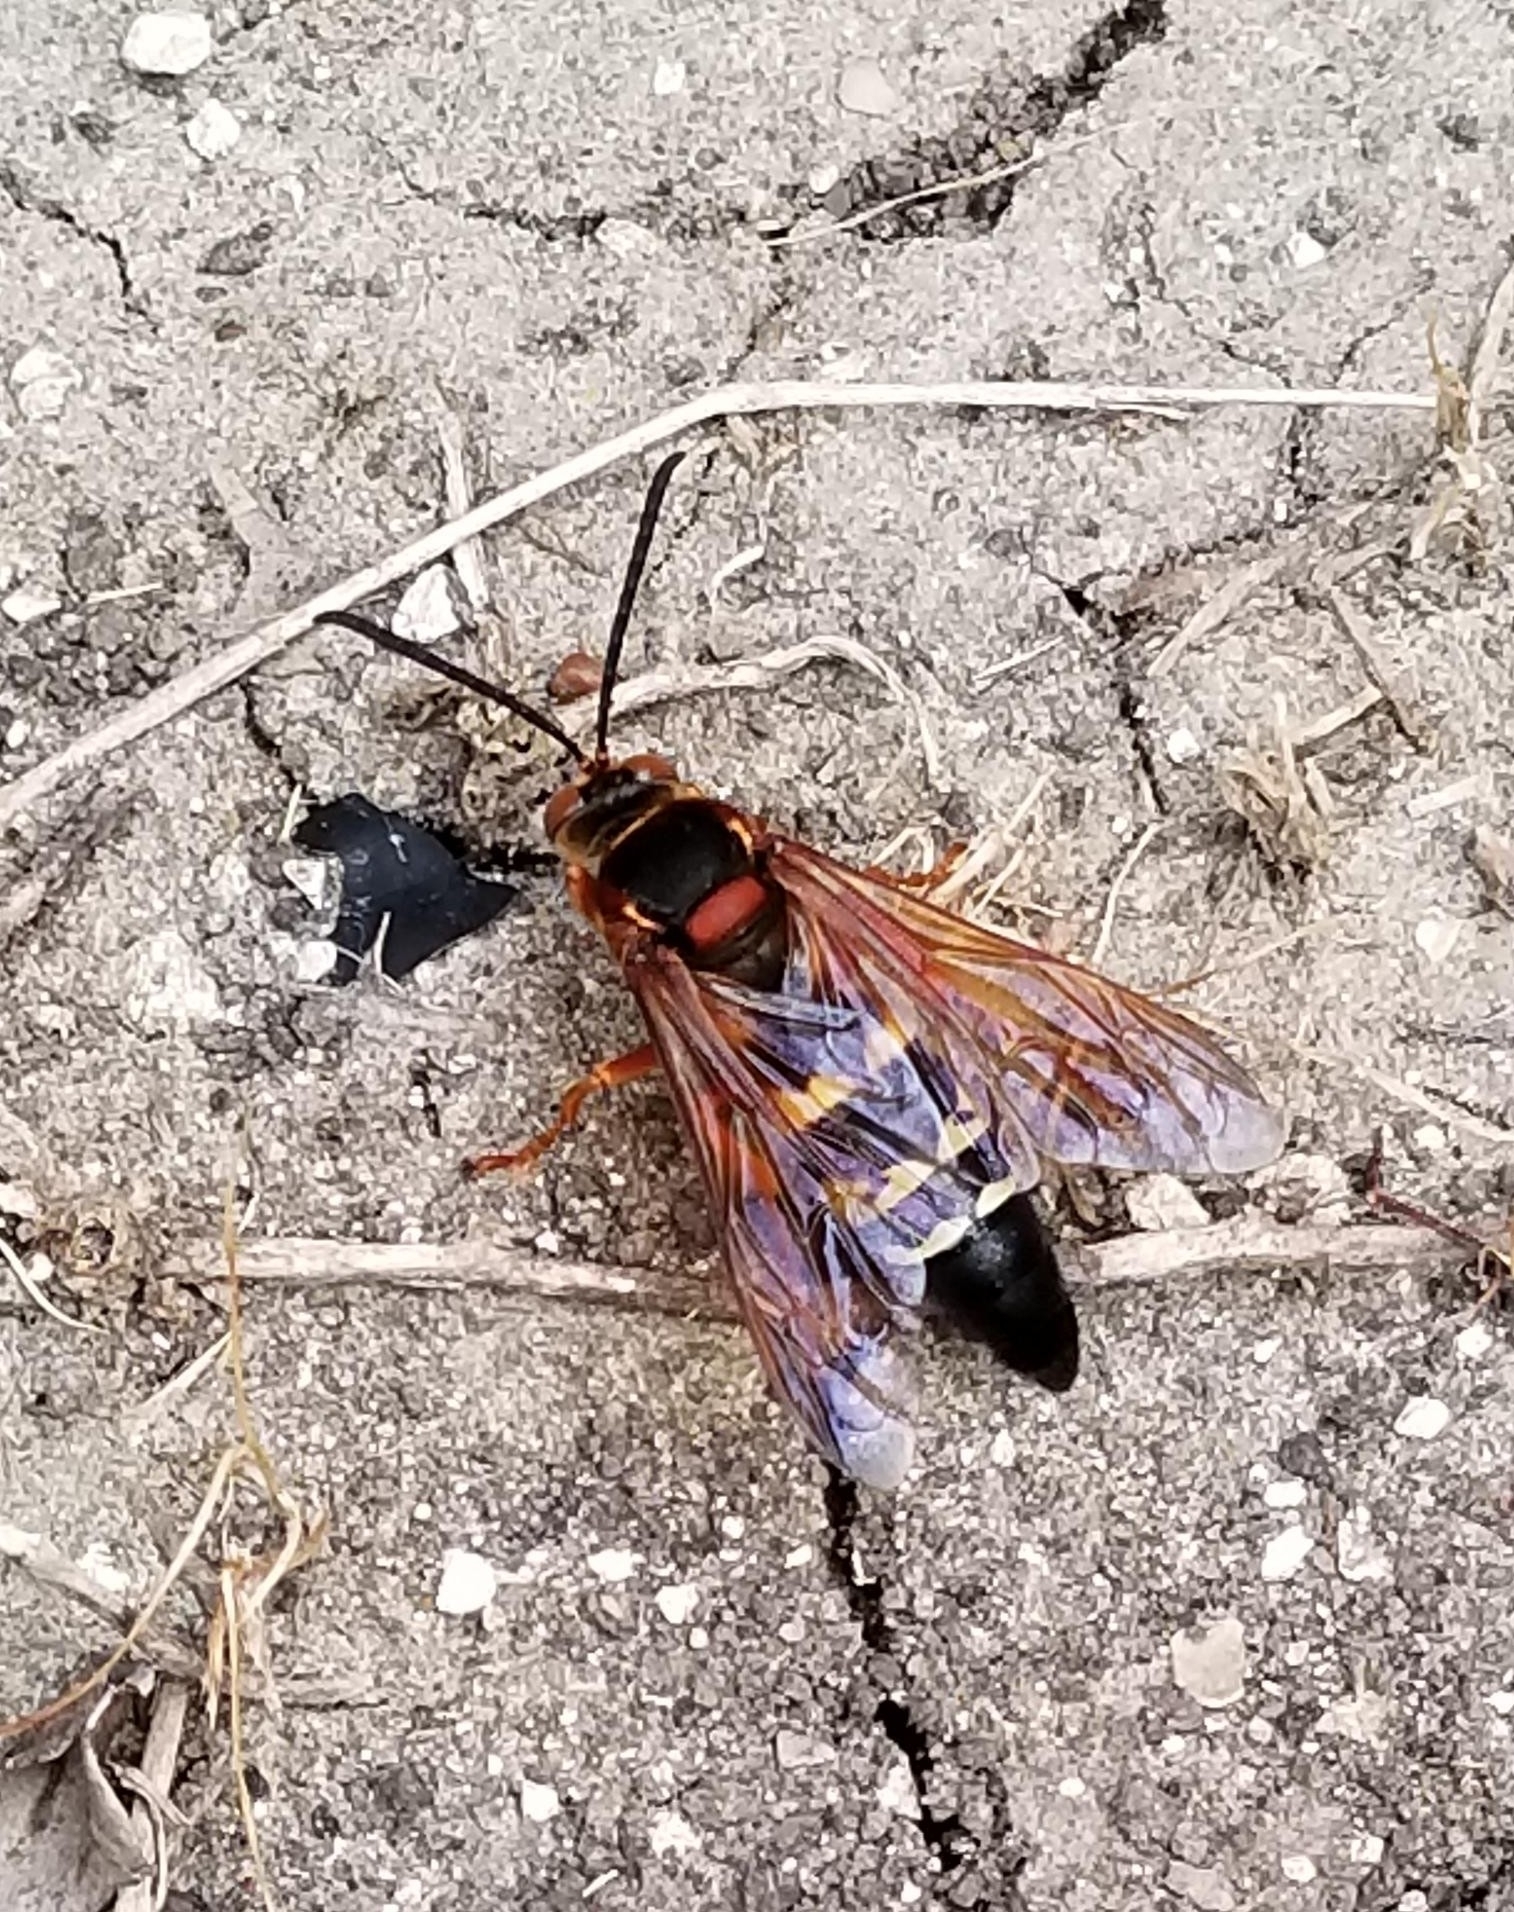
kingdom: Animalia
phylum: Arthropoda
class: Insecta
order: Hymenoptera
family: Crabronidae
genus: Sphecius
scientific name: Sphecius speciosus
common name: Cicada killer
